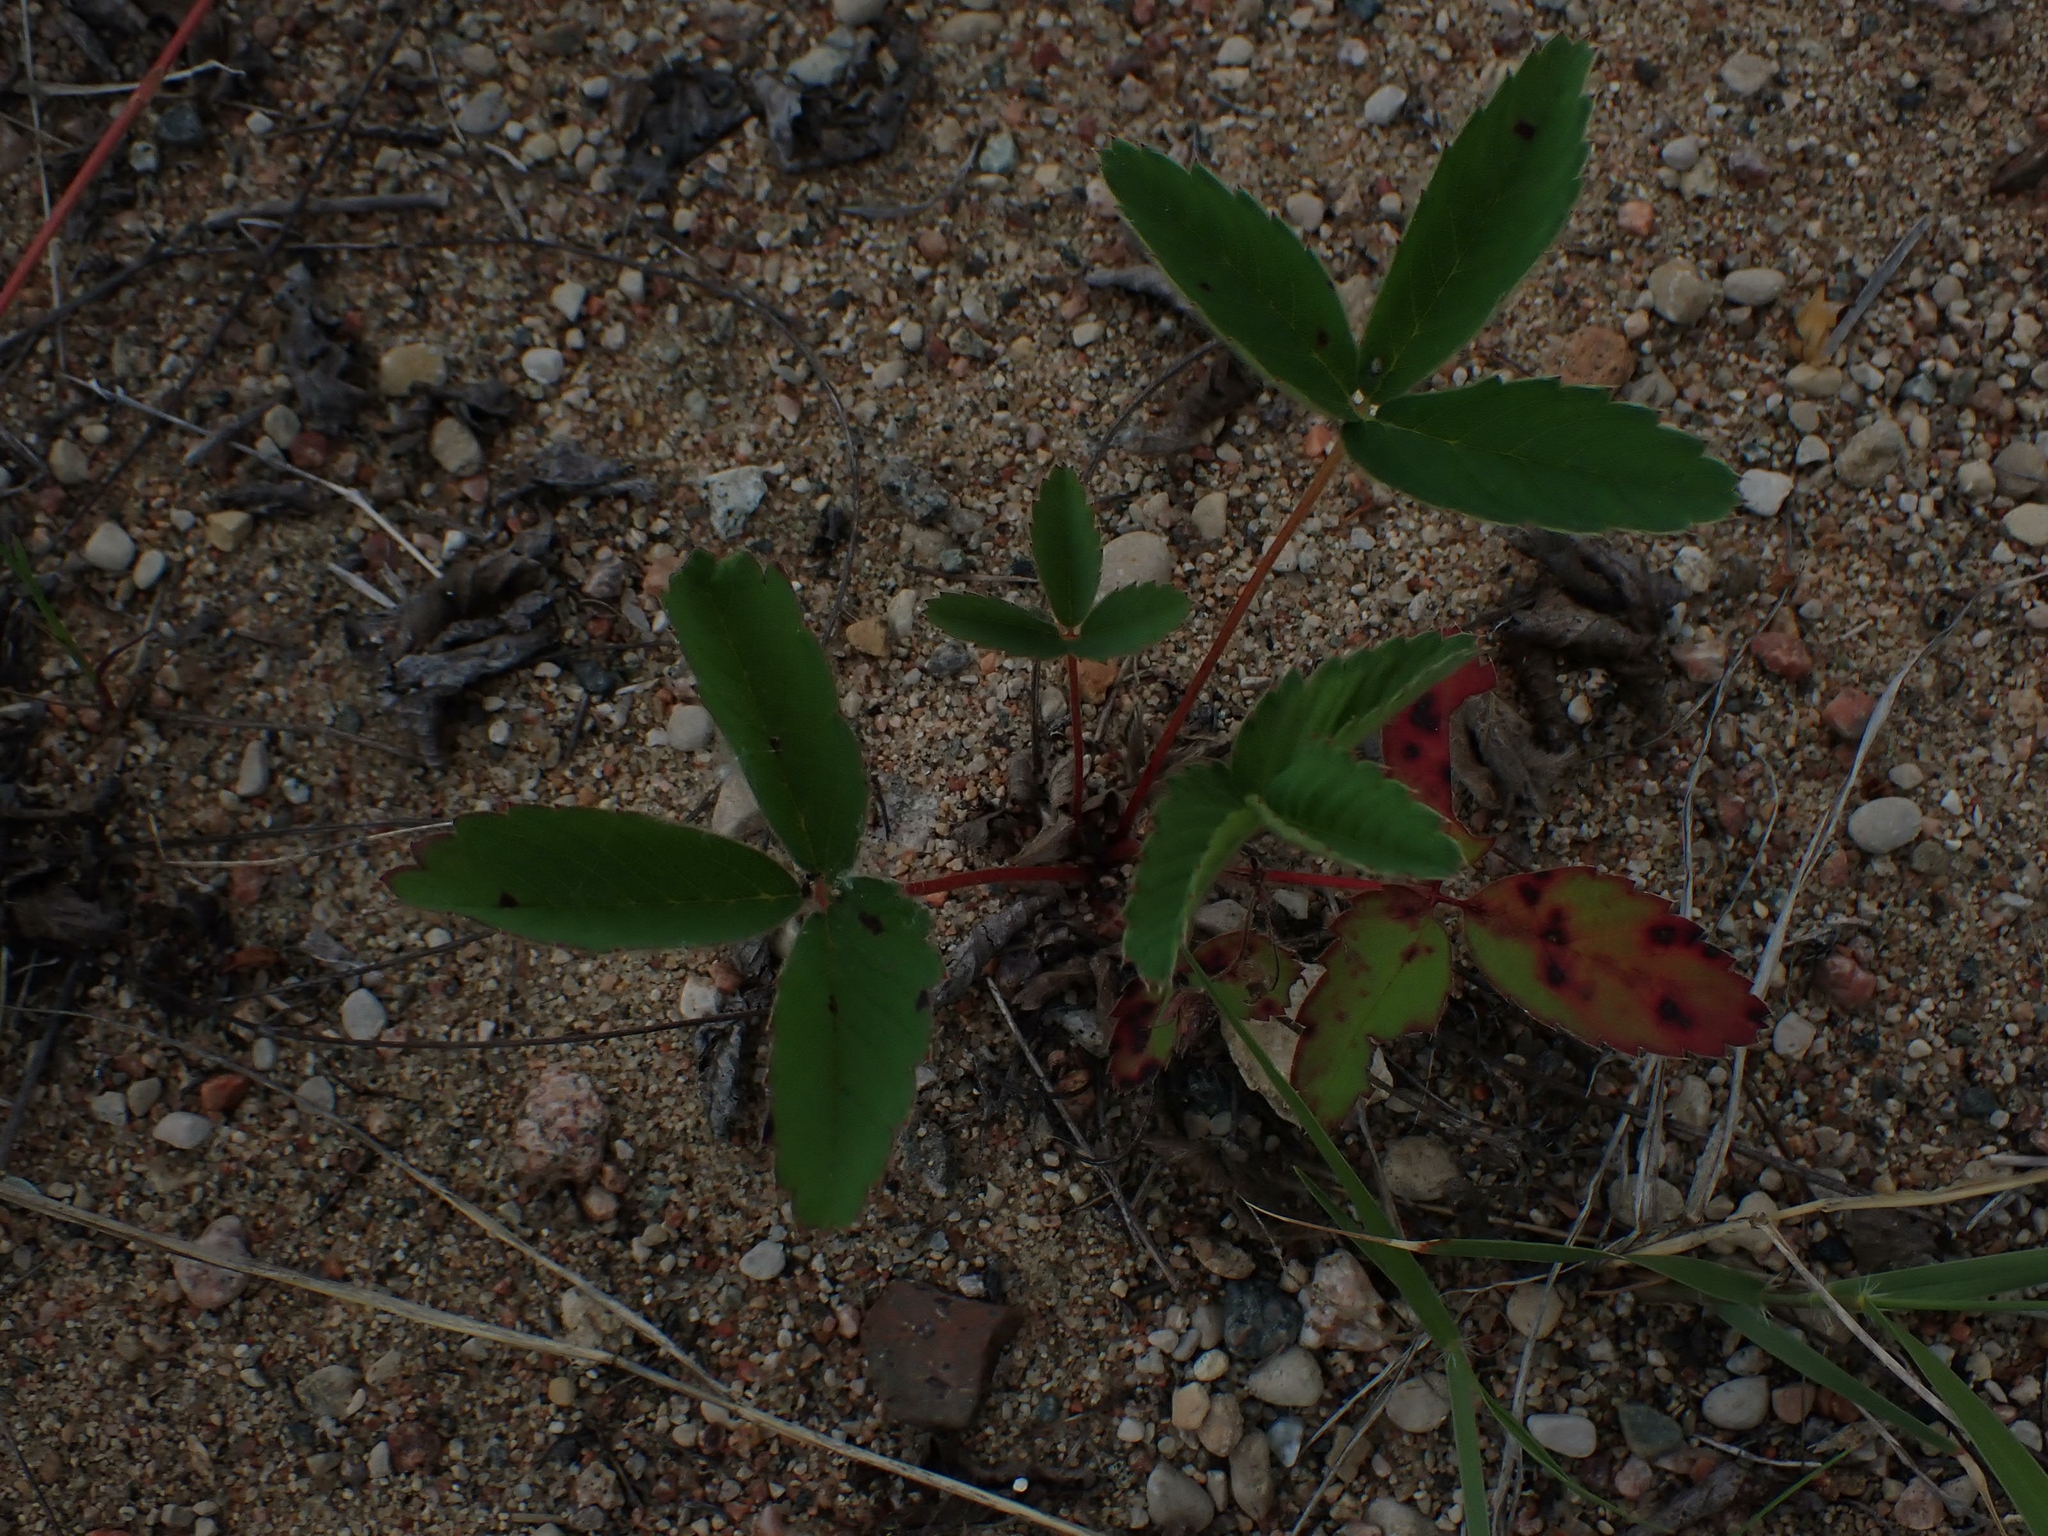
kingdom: Plantae
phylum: Tracheophyta
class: Magnoliopsida
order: Rosales
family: Rosaceae
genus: Fragaria
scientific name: Fragaria virginiana
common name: Thickleaved wild strawberry
